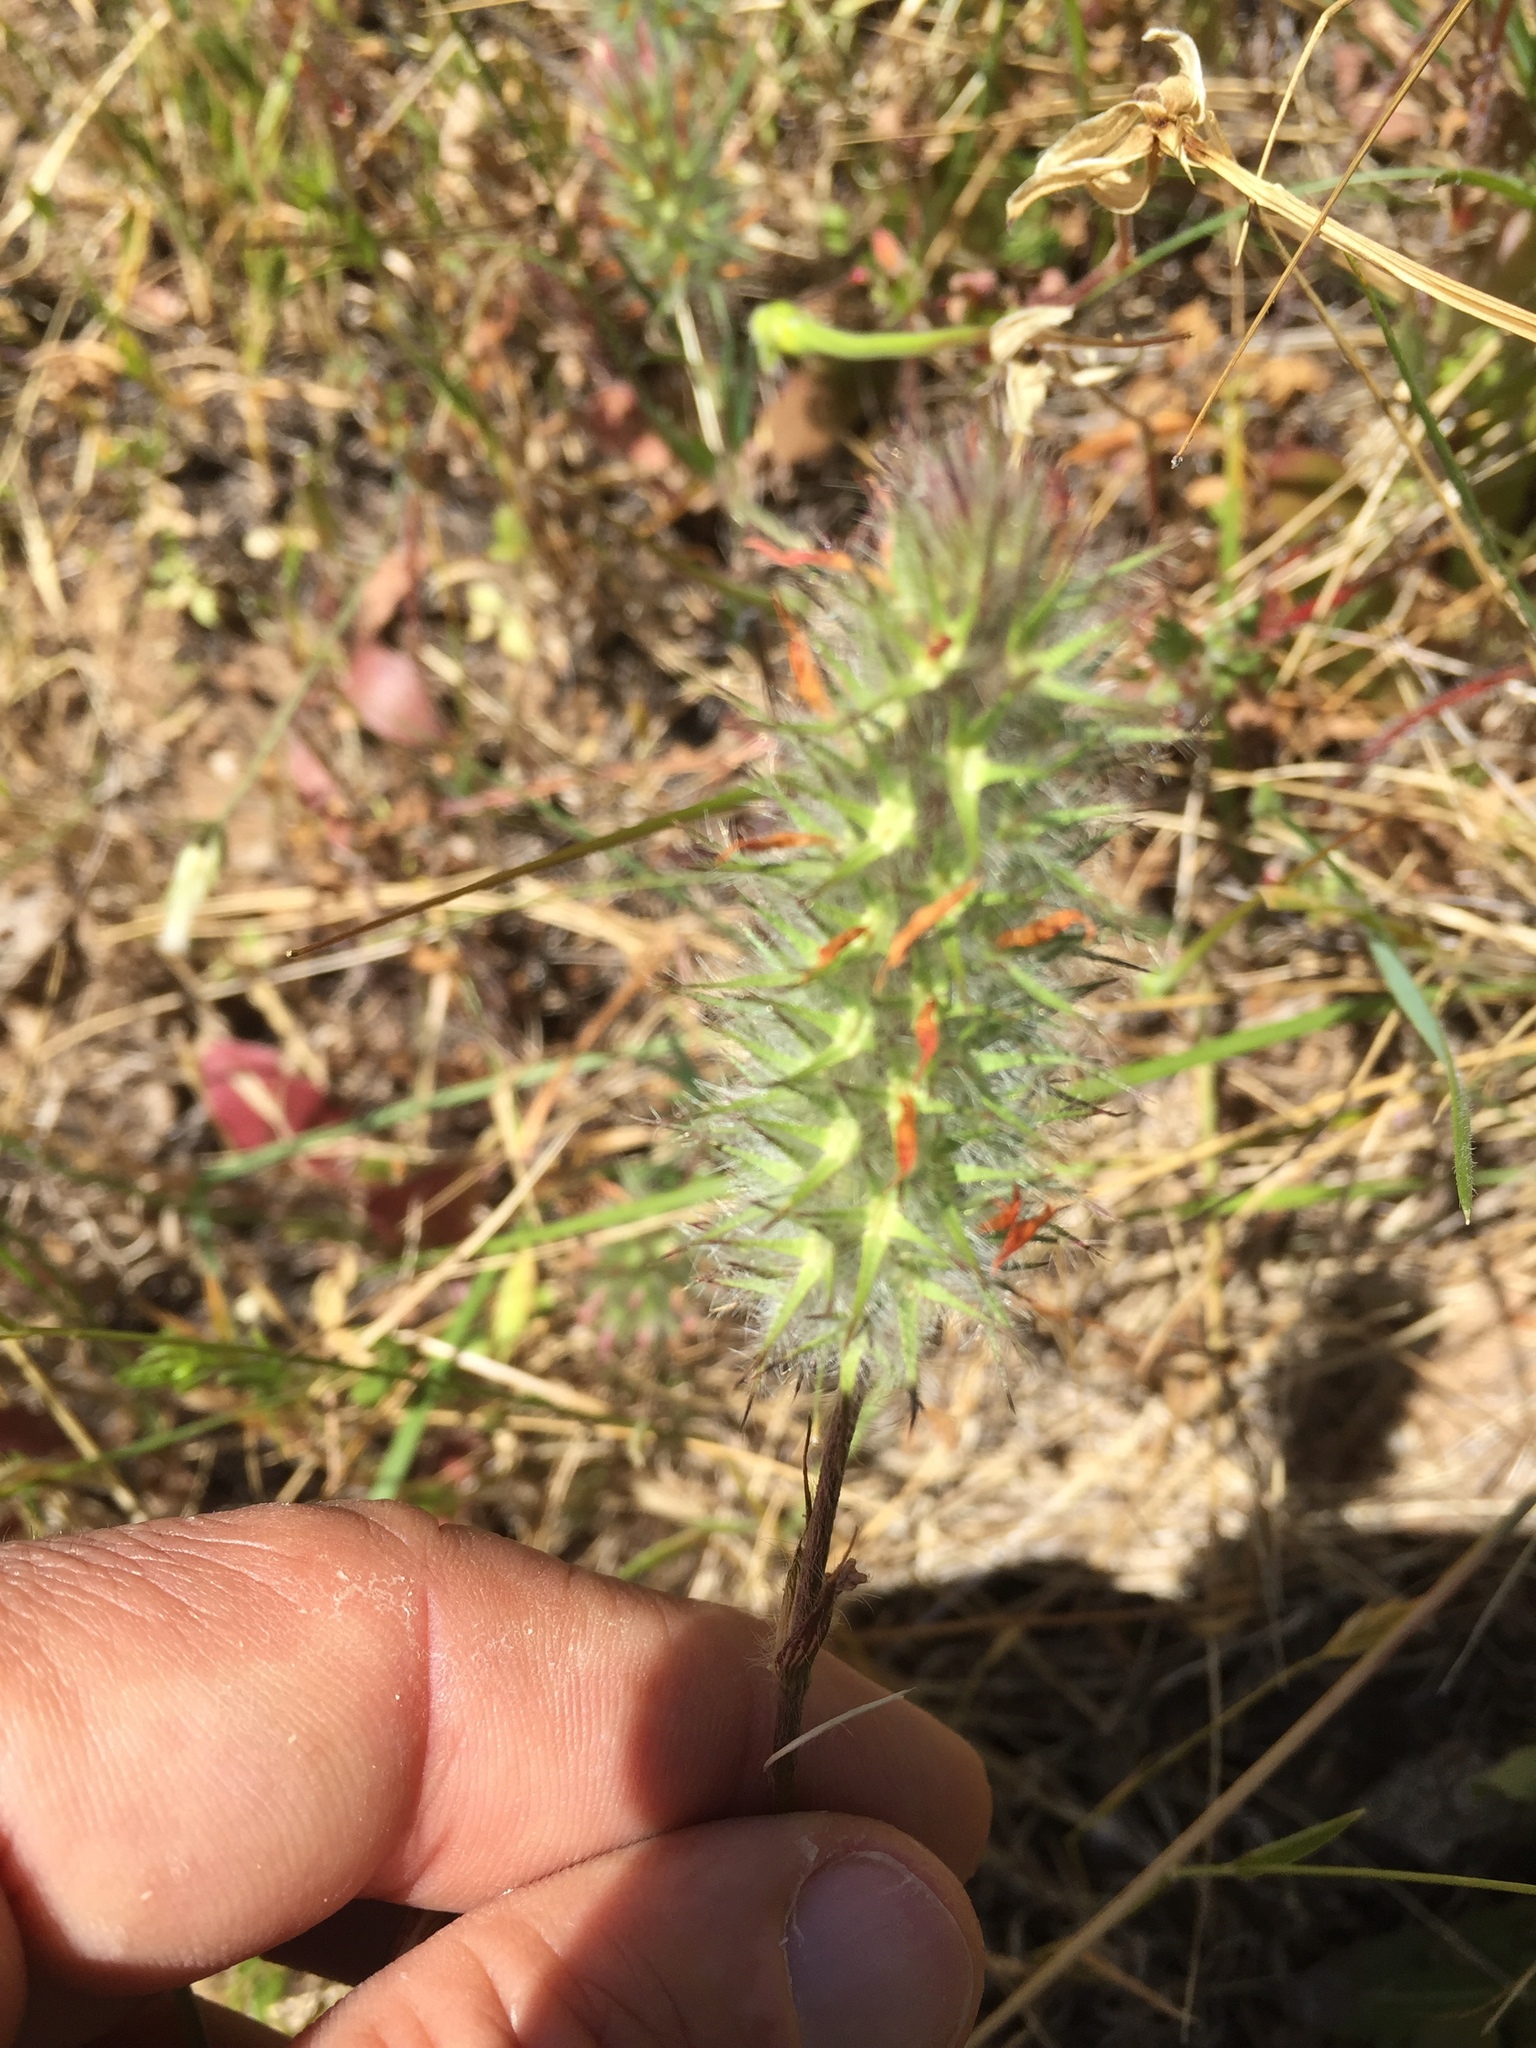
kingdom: Plantae
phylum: Tracheophyta
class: Magnoliopsida
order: Fabales
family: Fabaceae
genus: Trifolium
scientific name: Trifolium angustifolium
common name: Narrow clover
